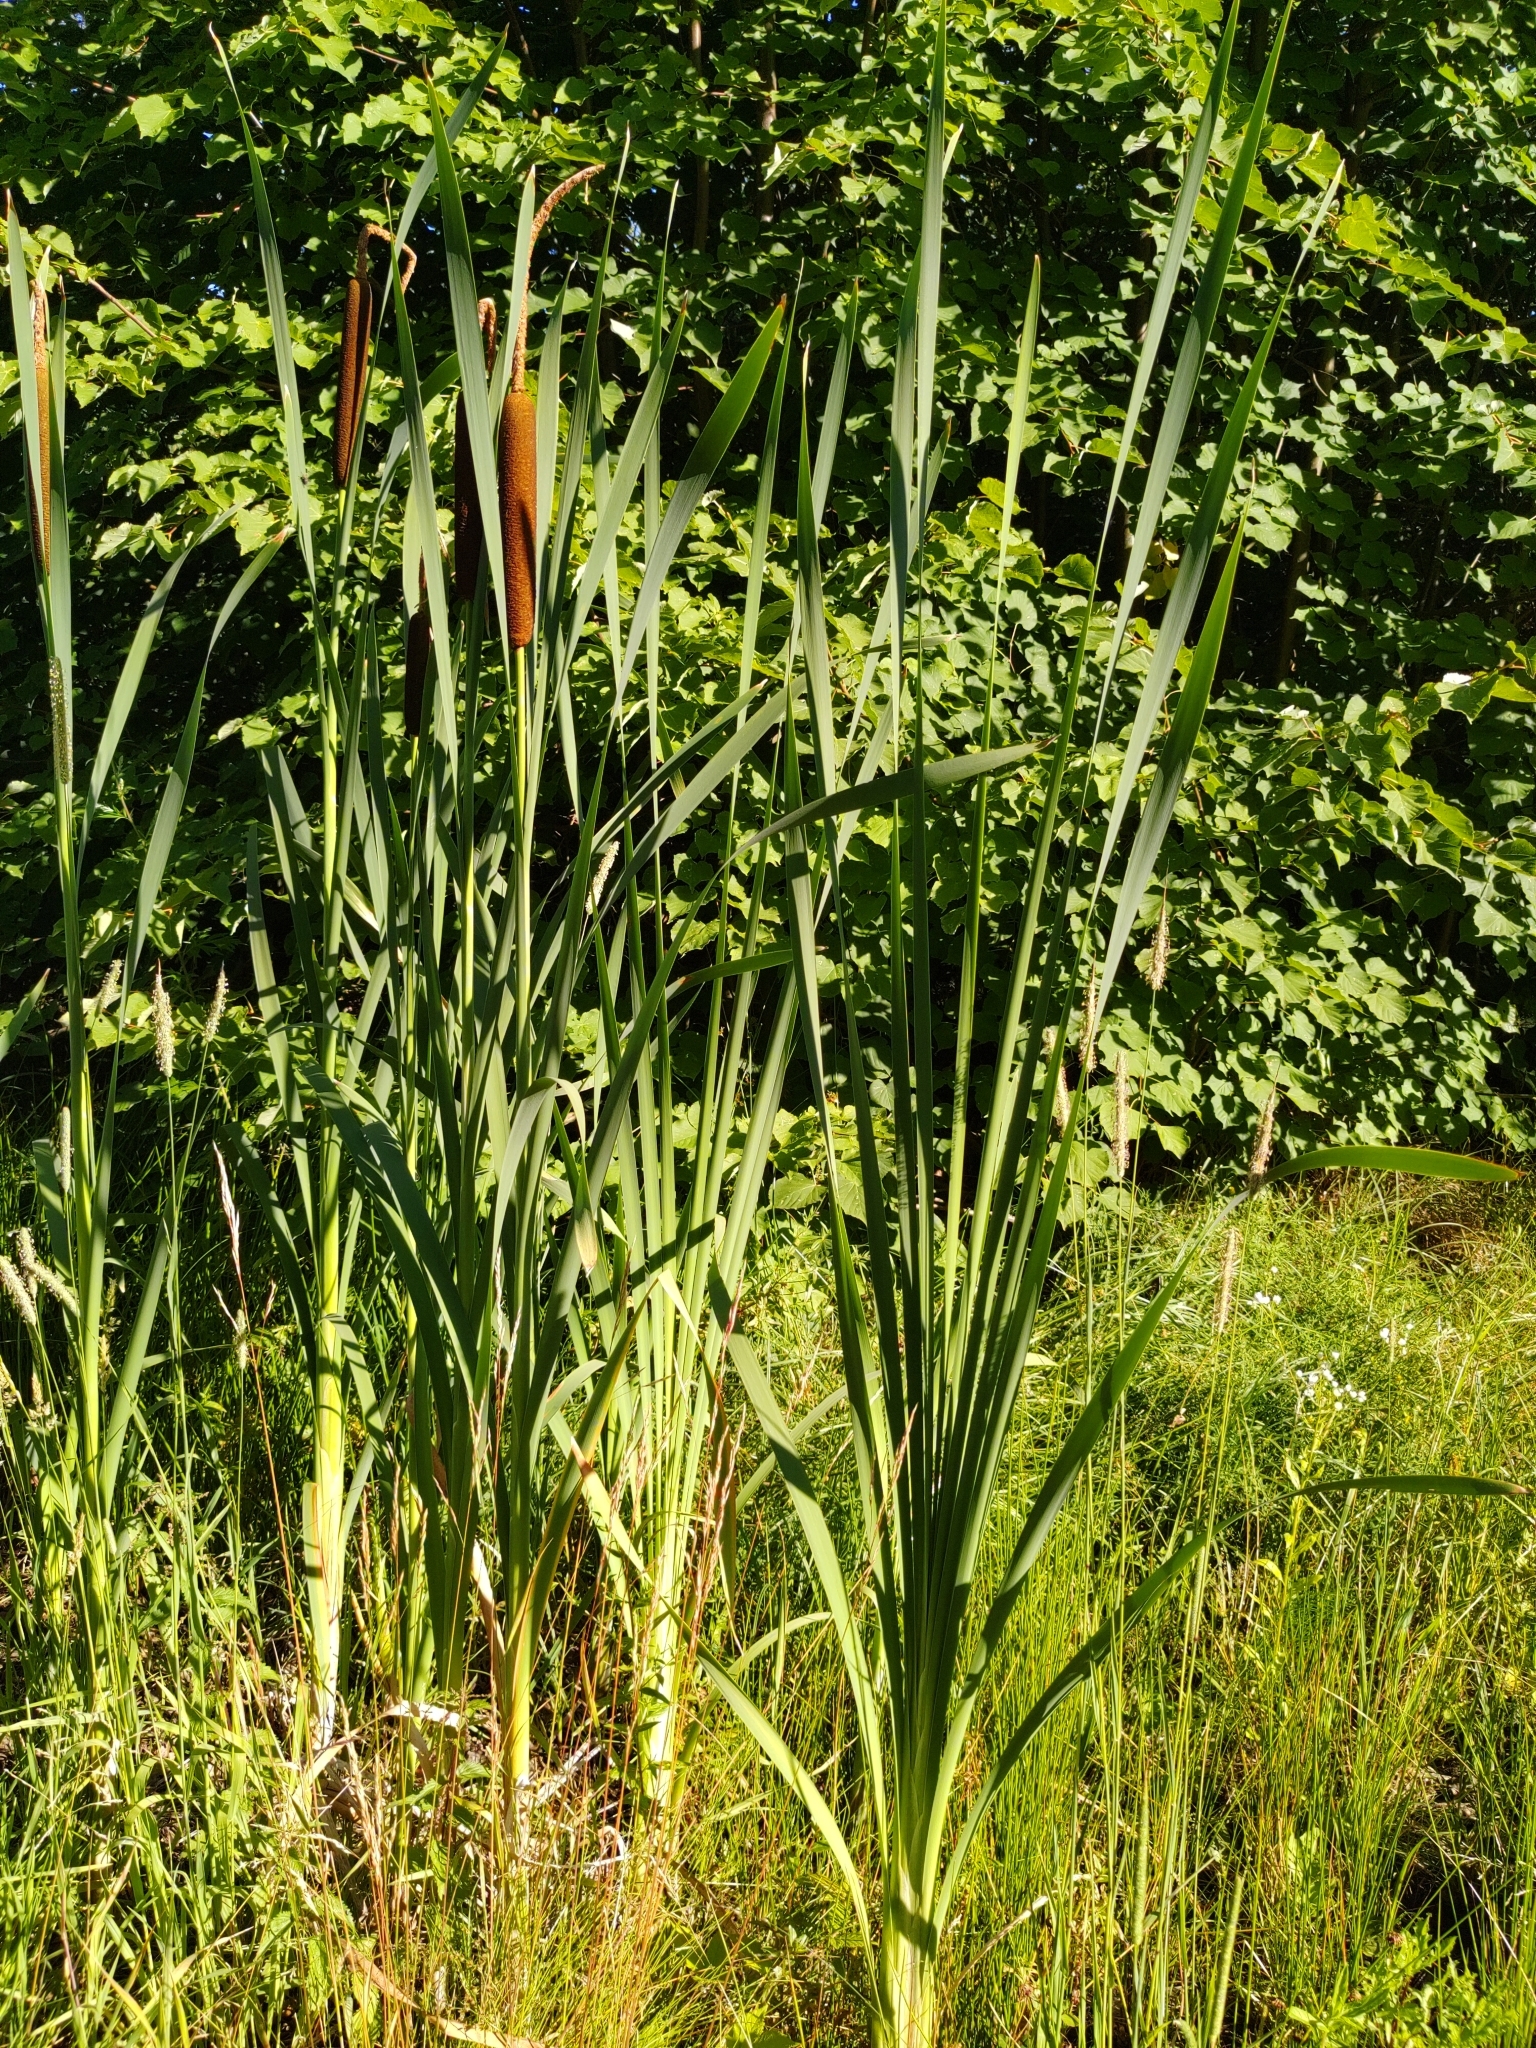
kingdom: Plantae
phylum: Tracheophyta
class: Liliopsida
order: Poales
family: Typhaceae
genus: Typha
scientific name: Typha latifolia
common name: Broadleaf cattail
